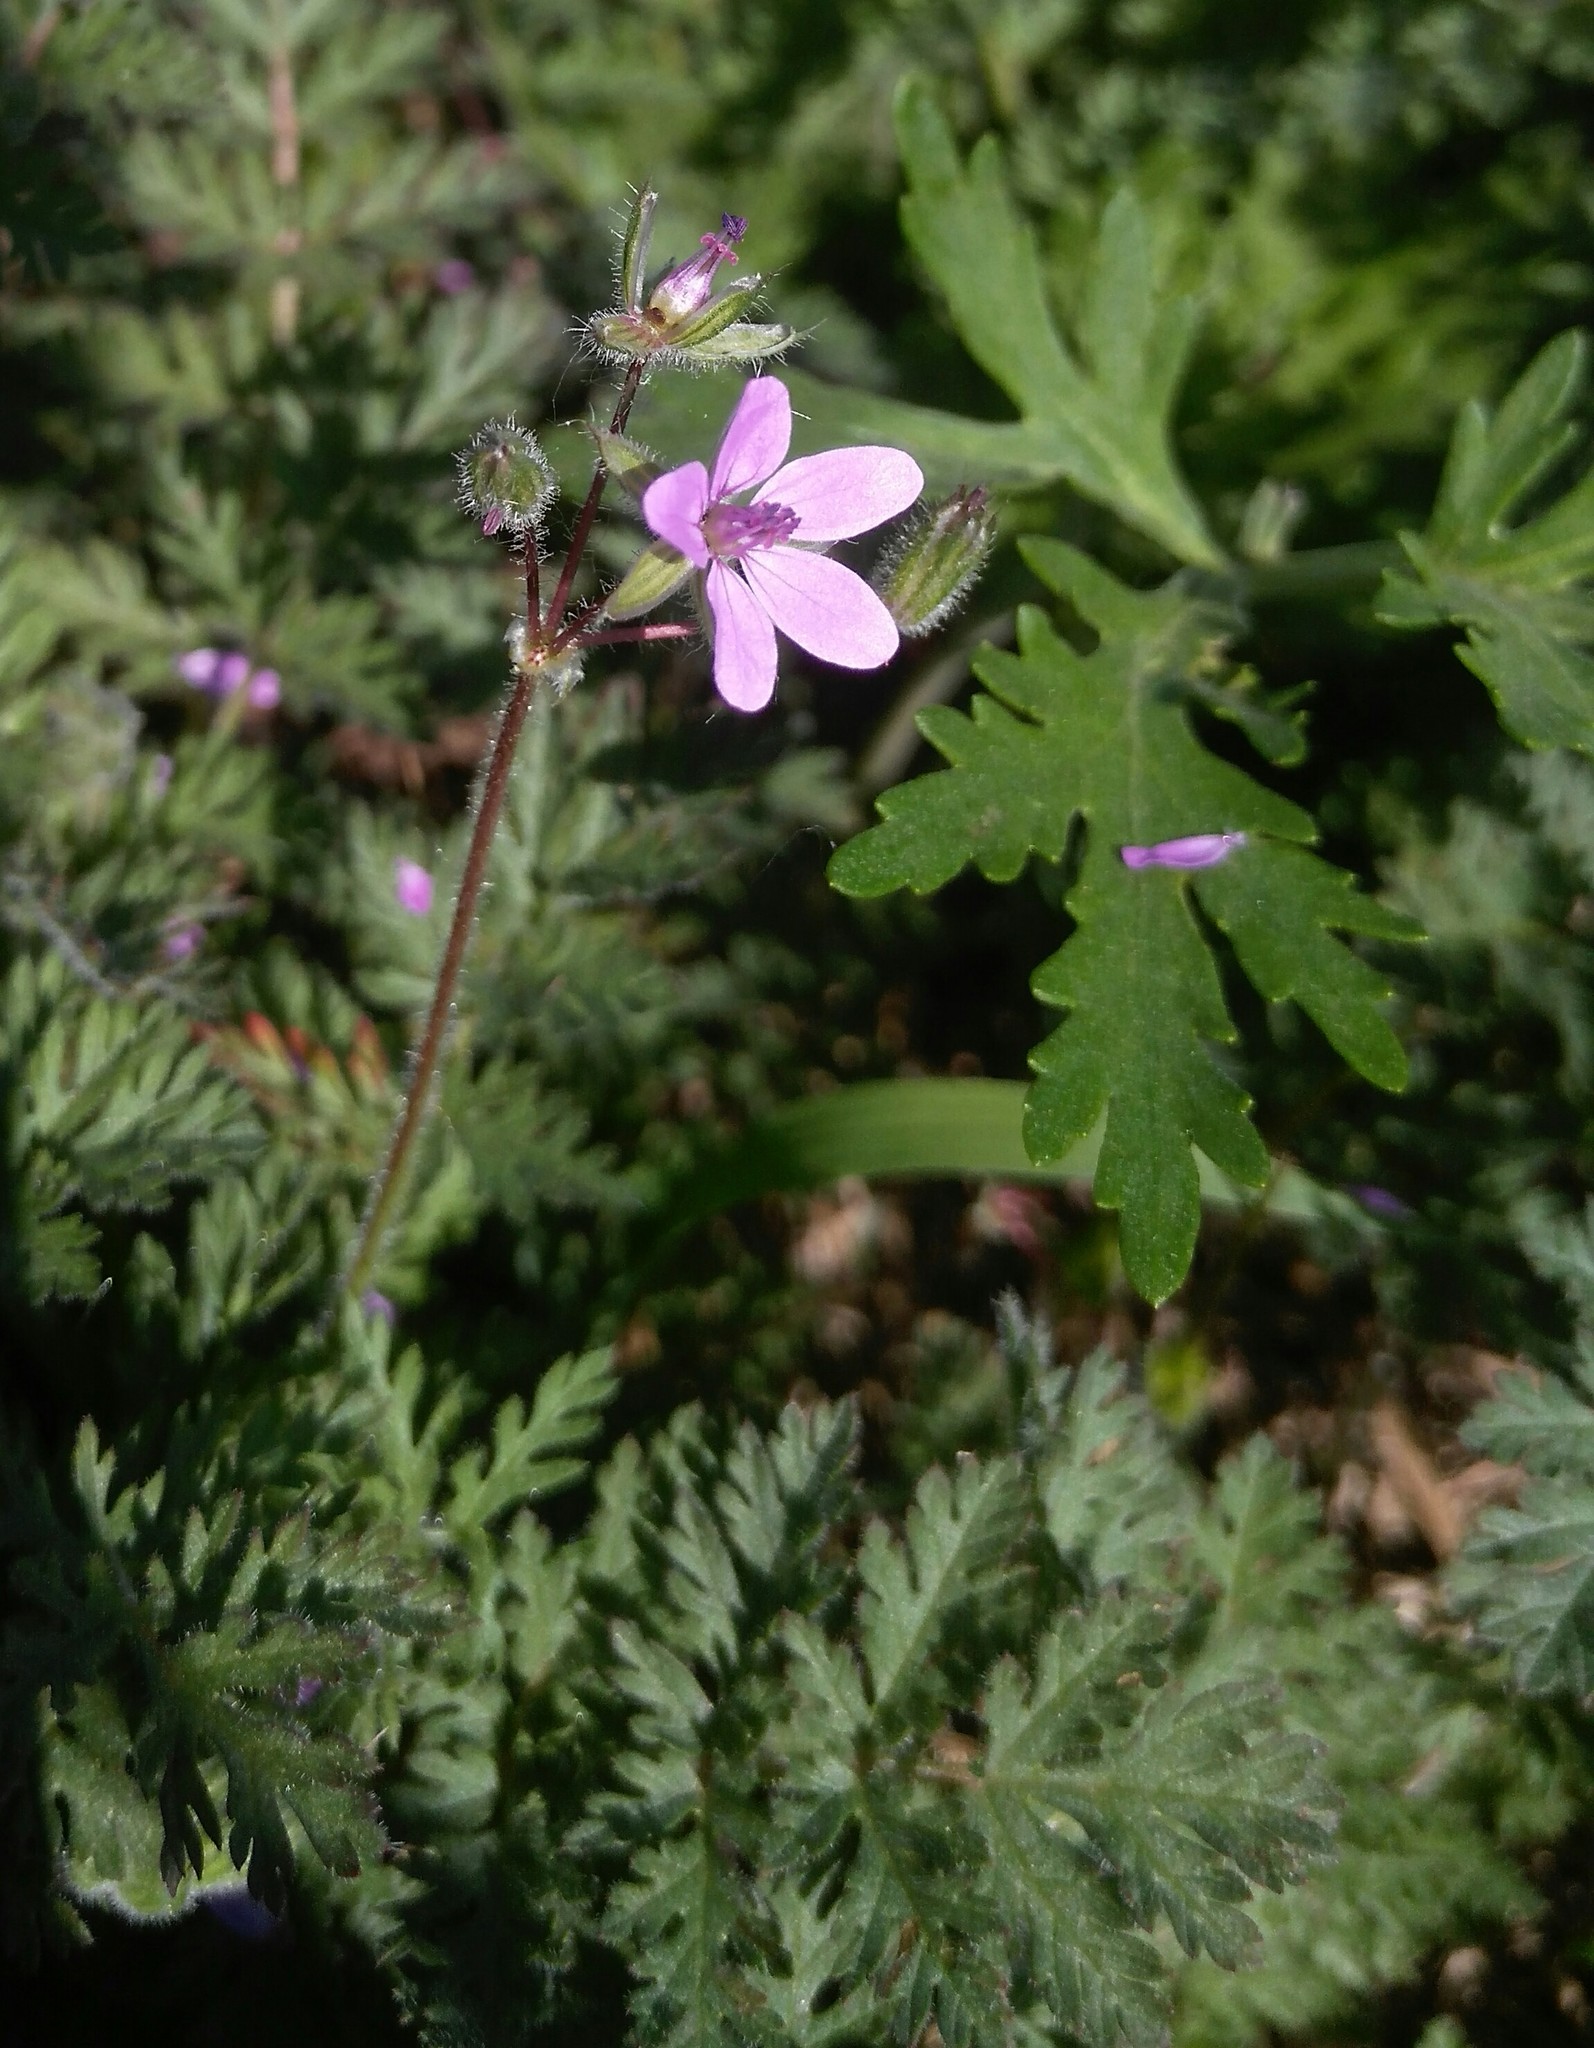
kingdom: Plantae
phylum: Tracheophyta
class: Magnoliopsida
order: Geraniales
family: Geraniaceae
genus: Erodium
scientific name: Erodium cicutarium
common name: Common stork's-bill
